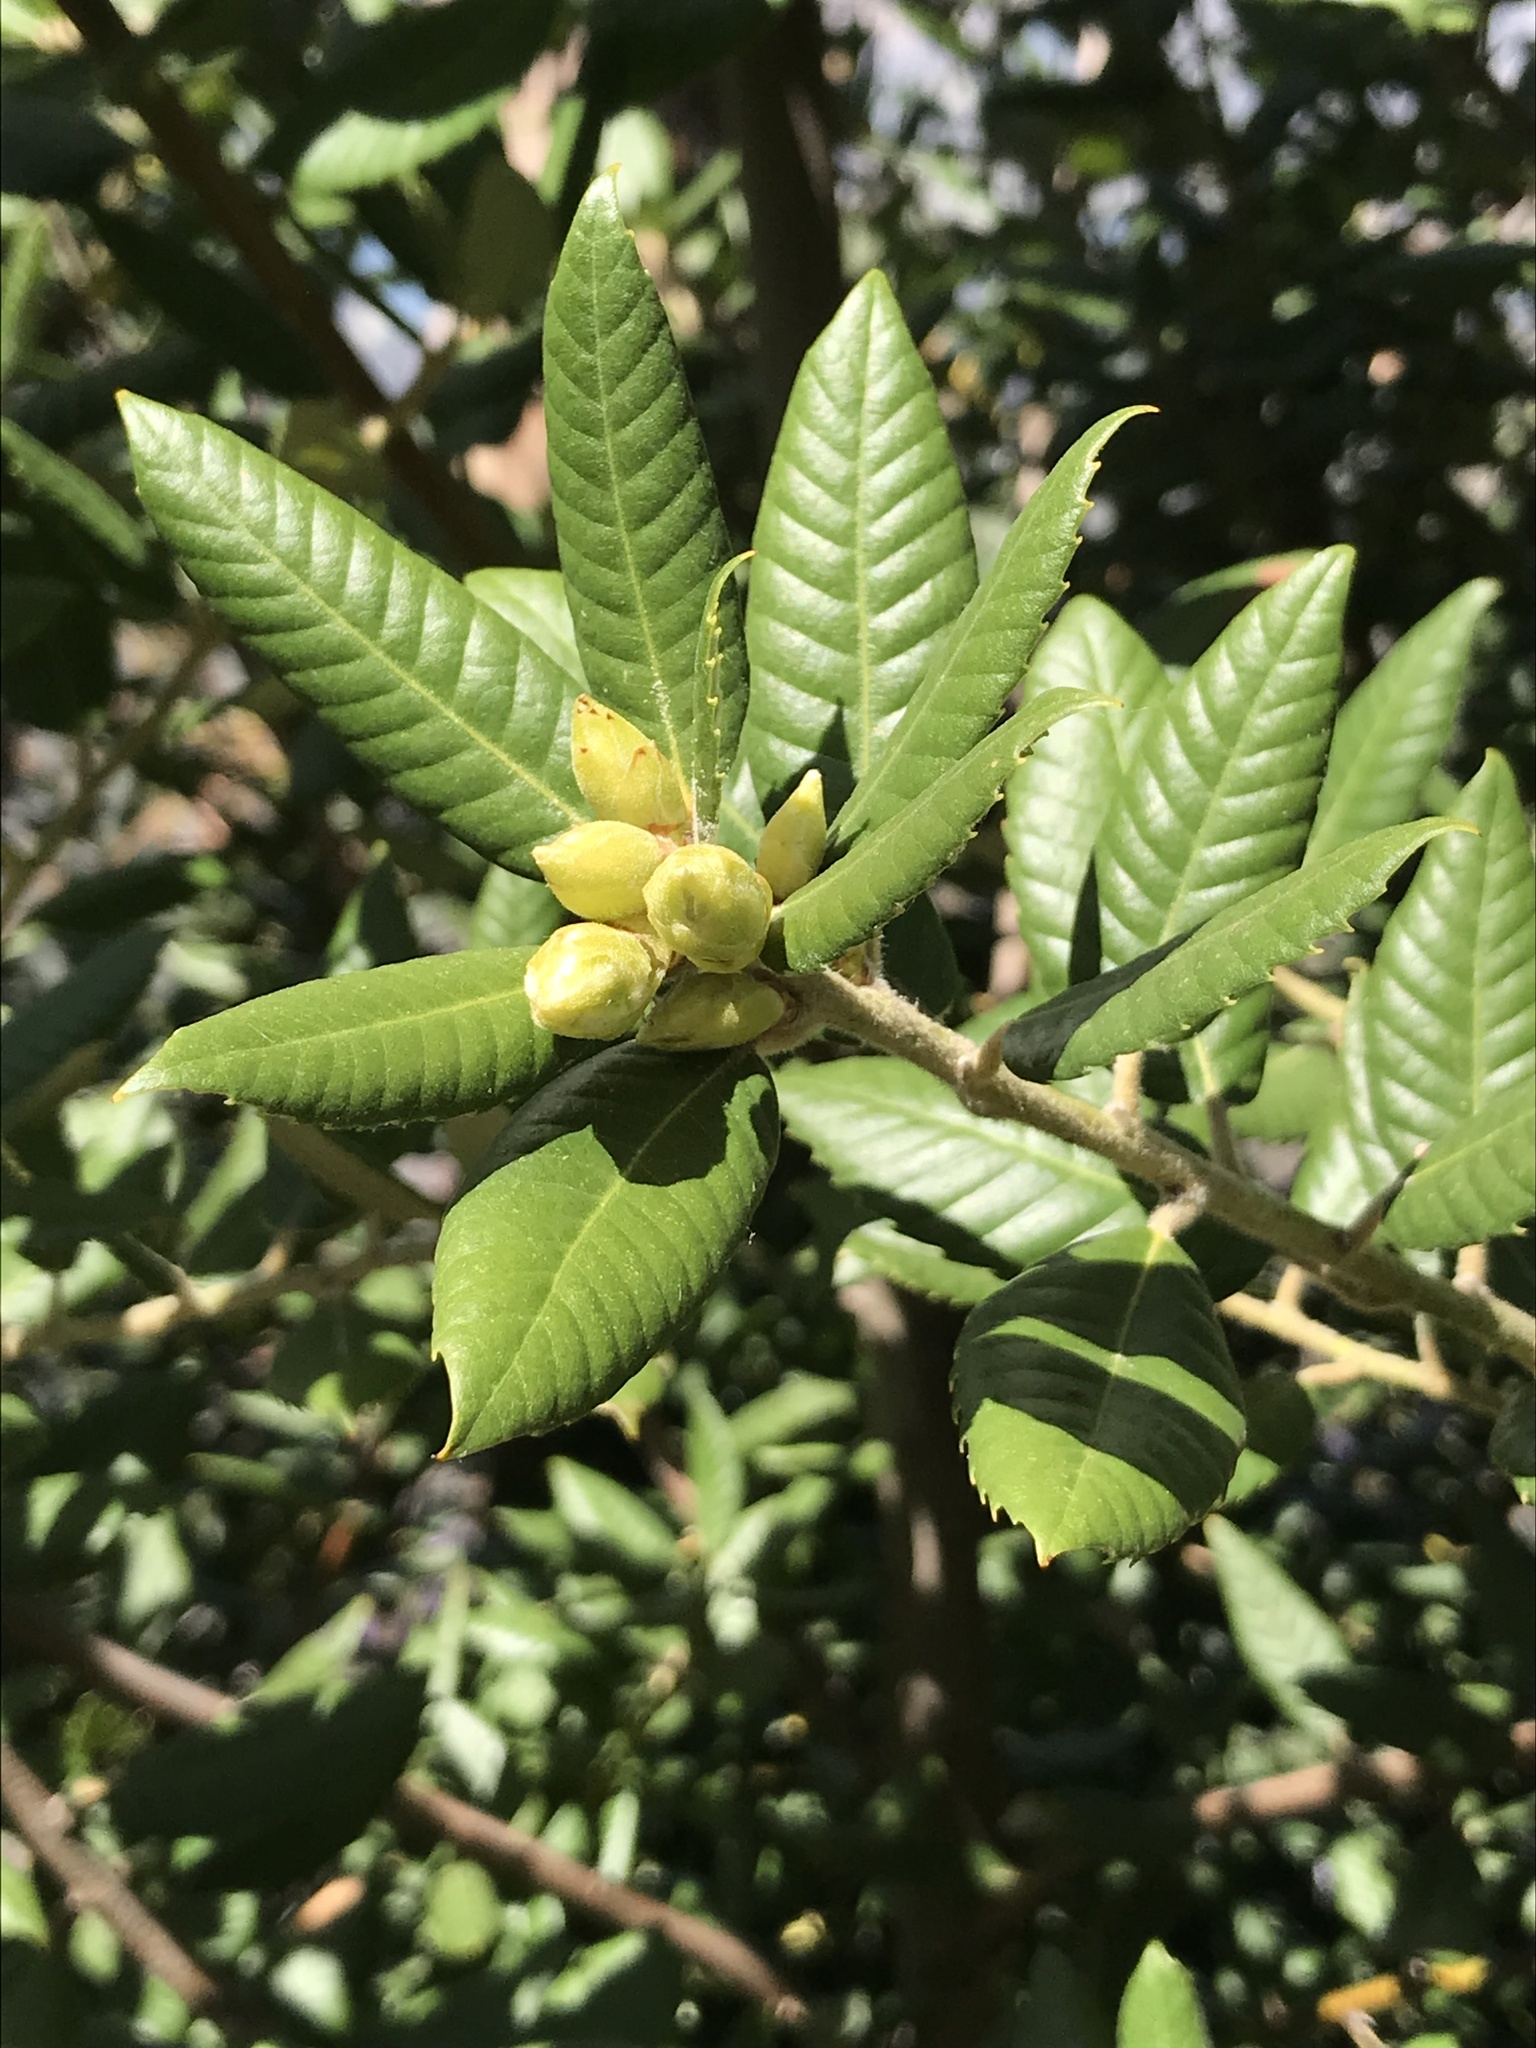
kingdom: Plantae
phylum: Tracheophyta
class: Magnoliopsida
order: Fagales
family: Fagaceae
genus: Notholithocarpus
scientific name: Notholithocarpus densiflorus
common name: Tan bark oak
